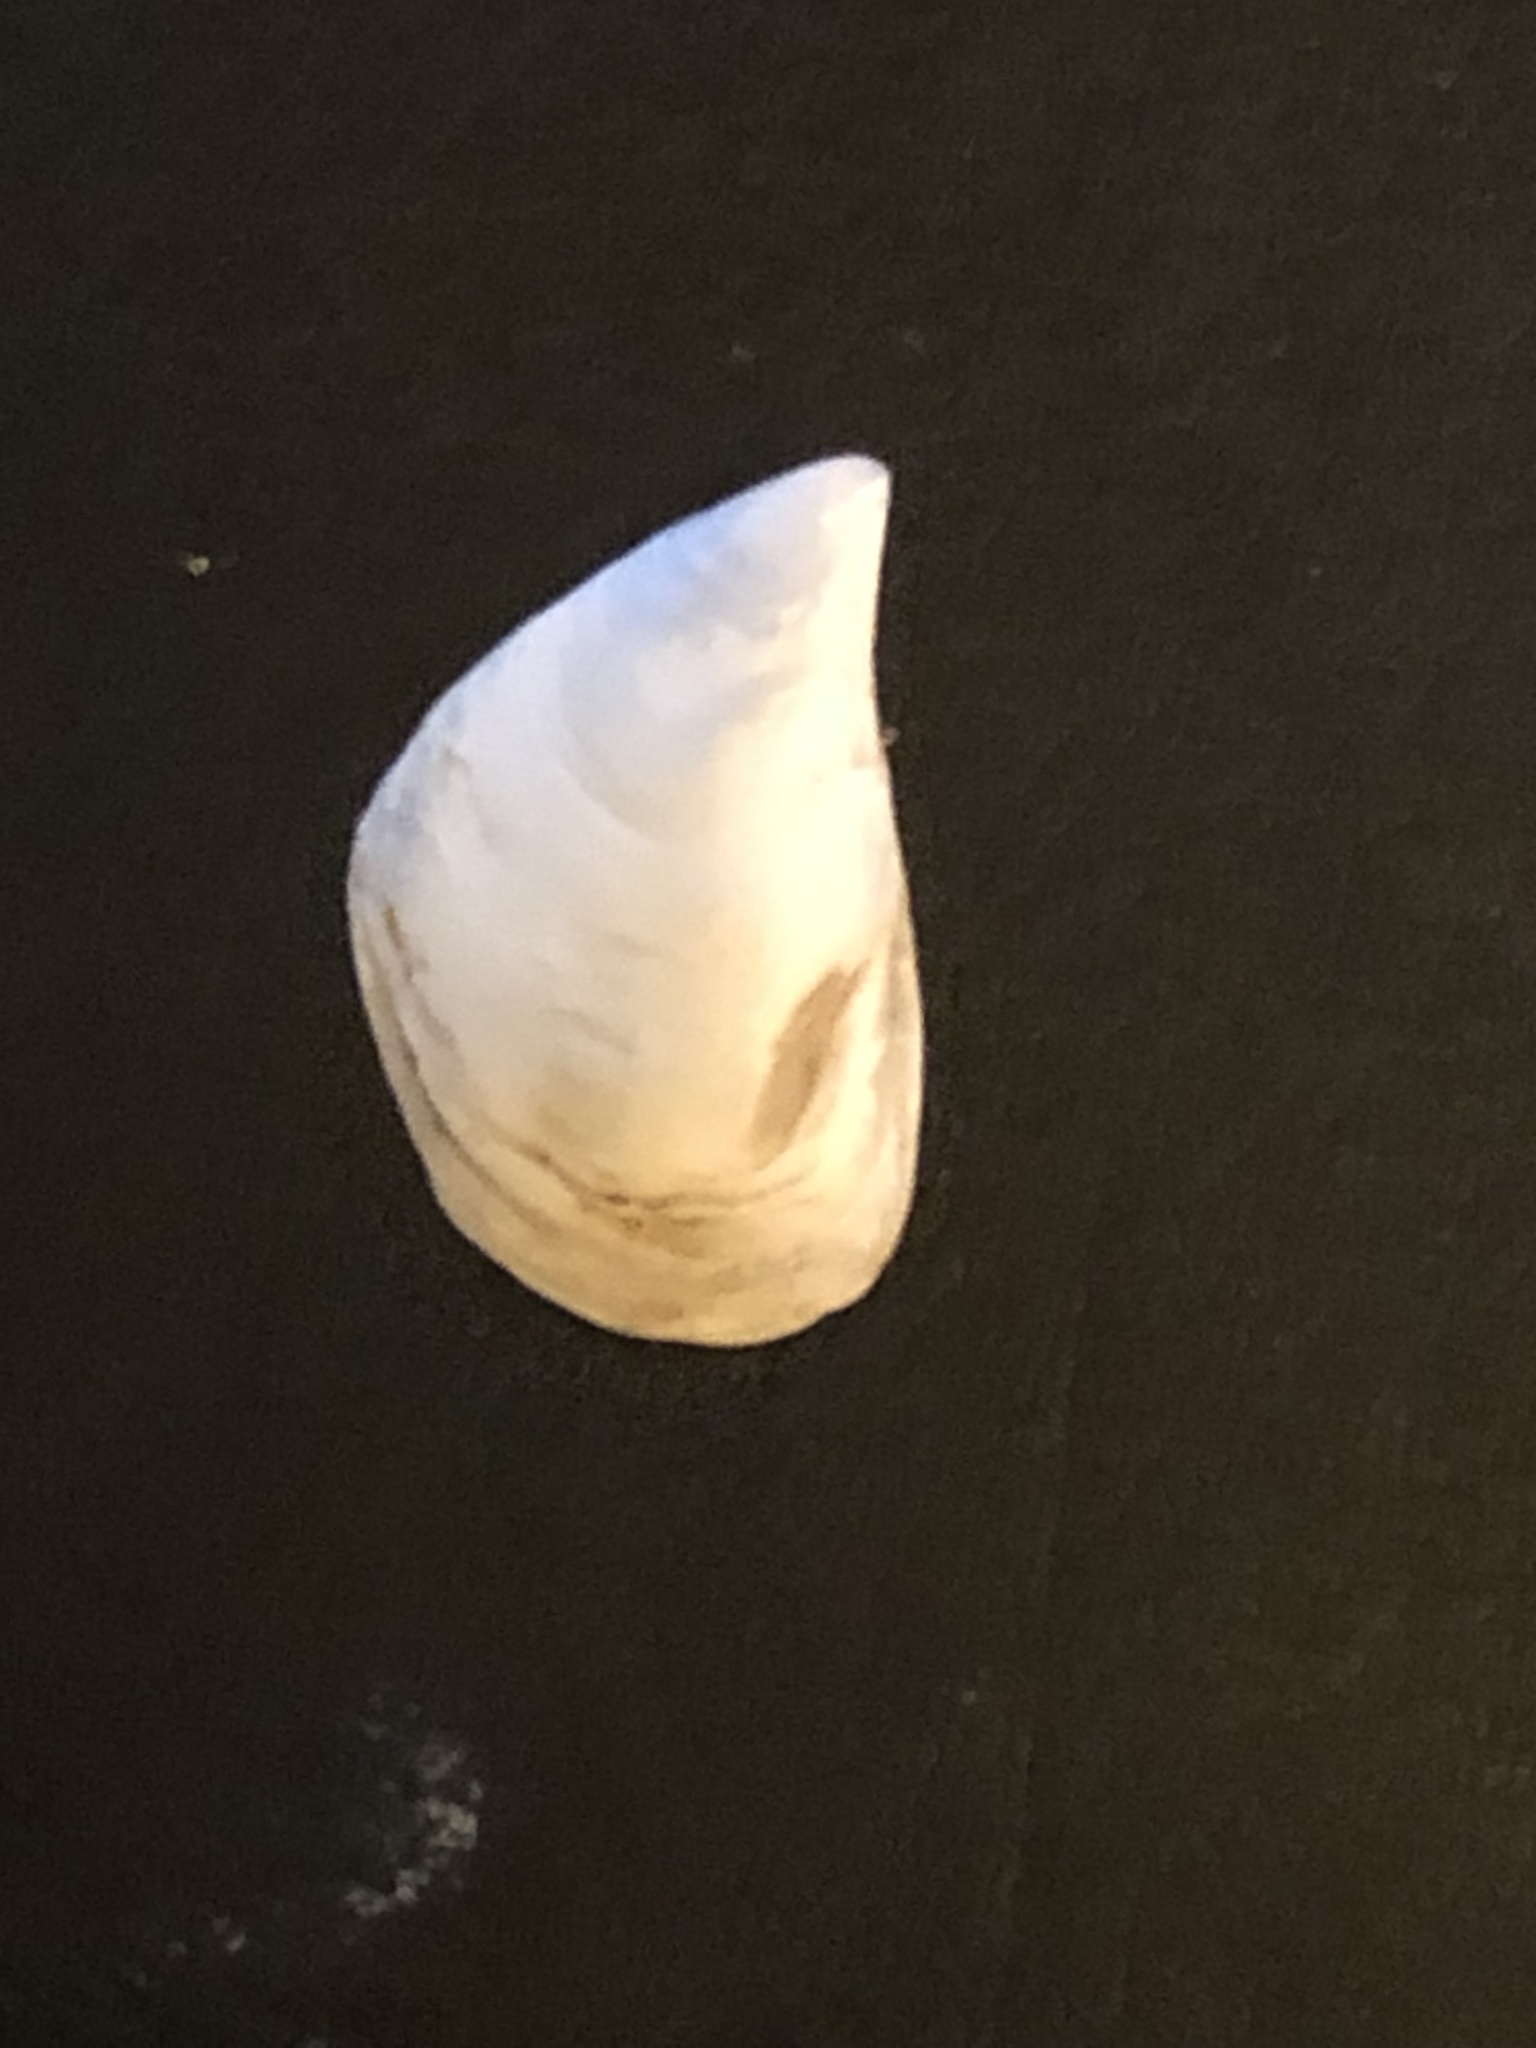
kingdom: Animalia
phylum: Mollusca
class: Bivalvia
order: Myida
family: Dreissenidae
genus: Dreissena
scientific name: Dreissena bugensis
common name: Quagga mussel
